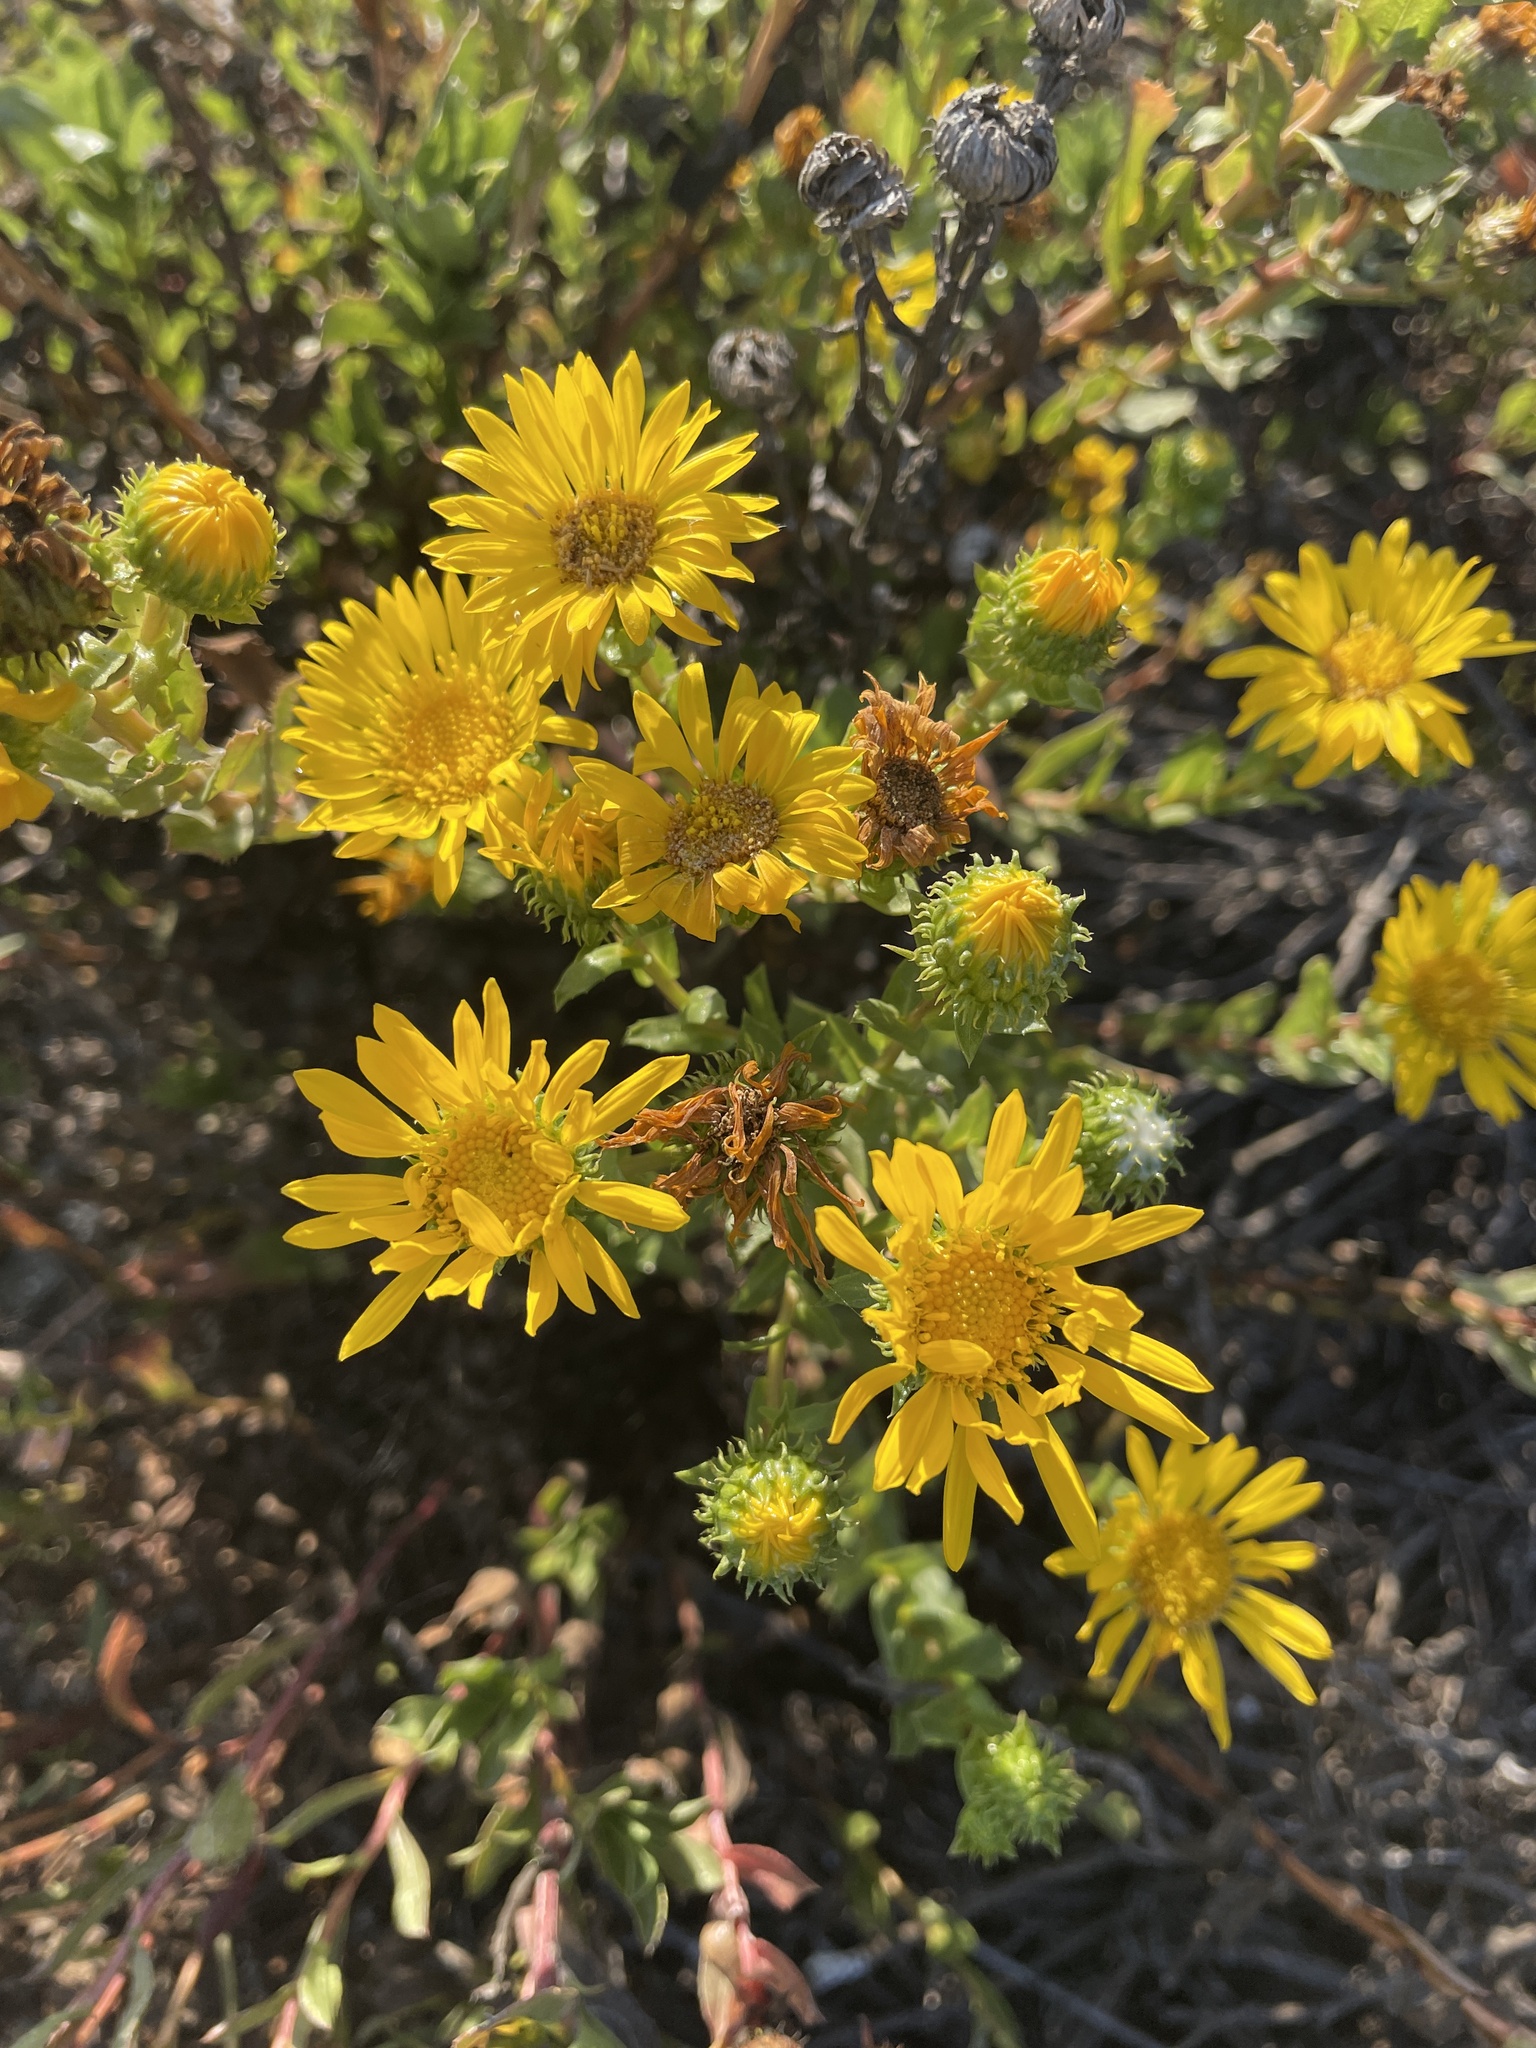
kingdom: Plantae
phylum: Tracheophyta
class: Magnoliopsida
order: Asterales
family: Asteraceae
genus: Grindelia
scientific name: Grindelia hirsutula
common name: Hairy gumweed
